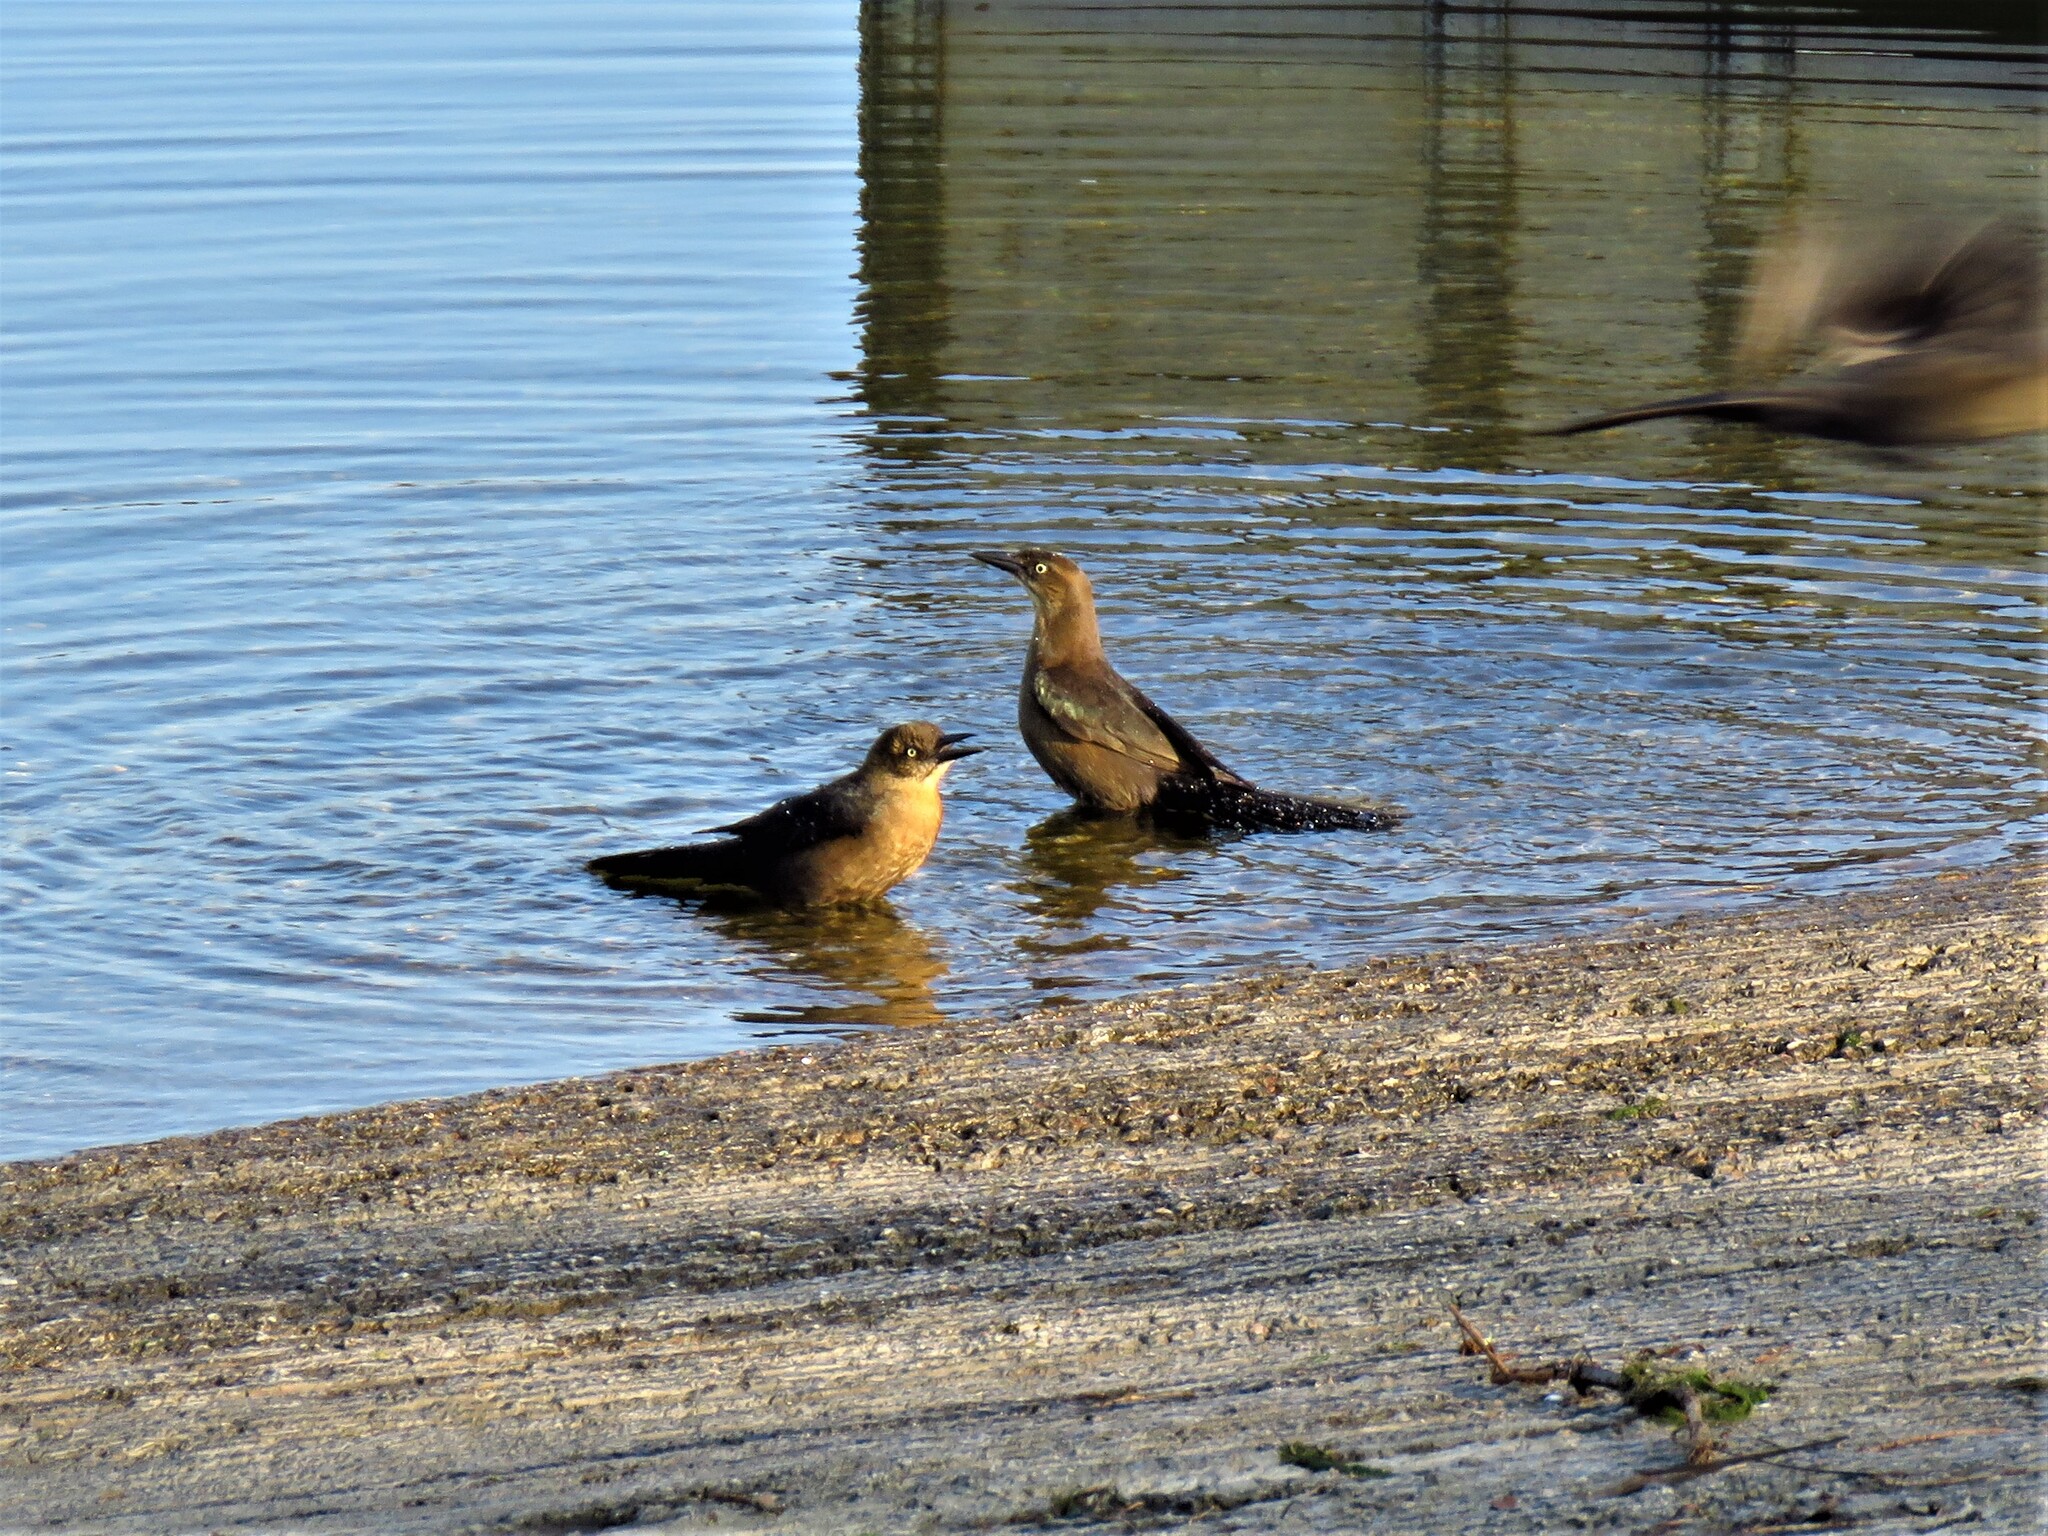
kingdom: Animalia
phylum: Chordata
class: Aves
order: Passeriformes
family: Icteridae
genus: Quiscalus
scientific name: Quiscalus mexicanus
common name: Great-tailed grackle
